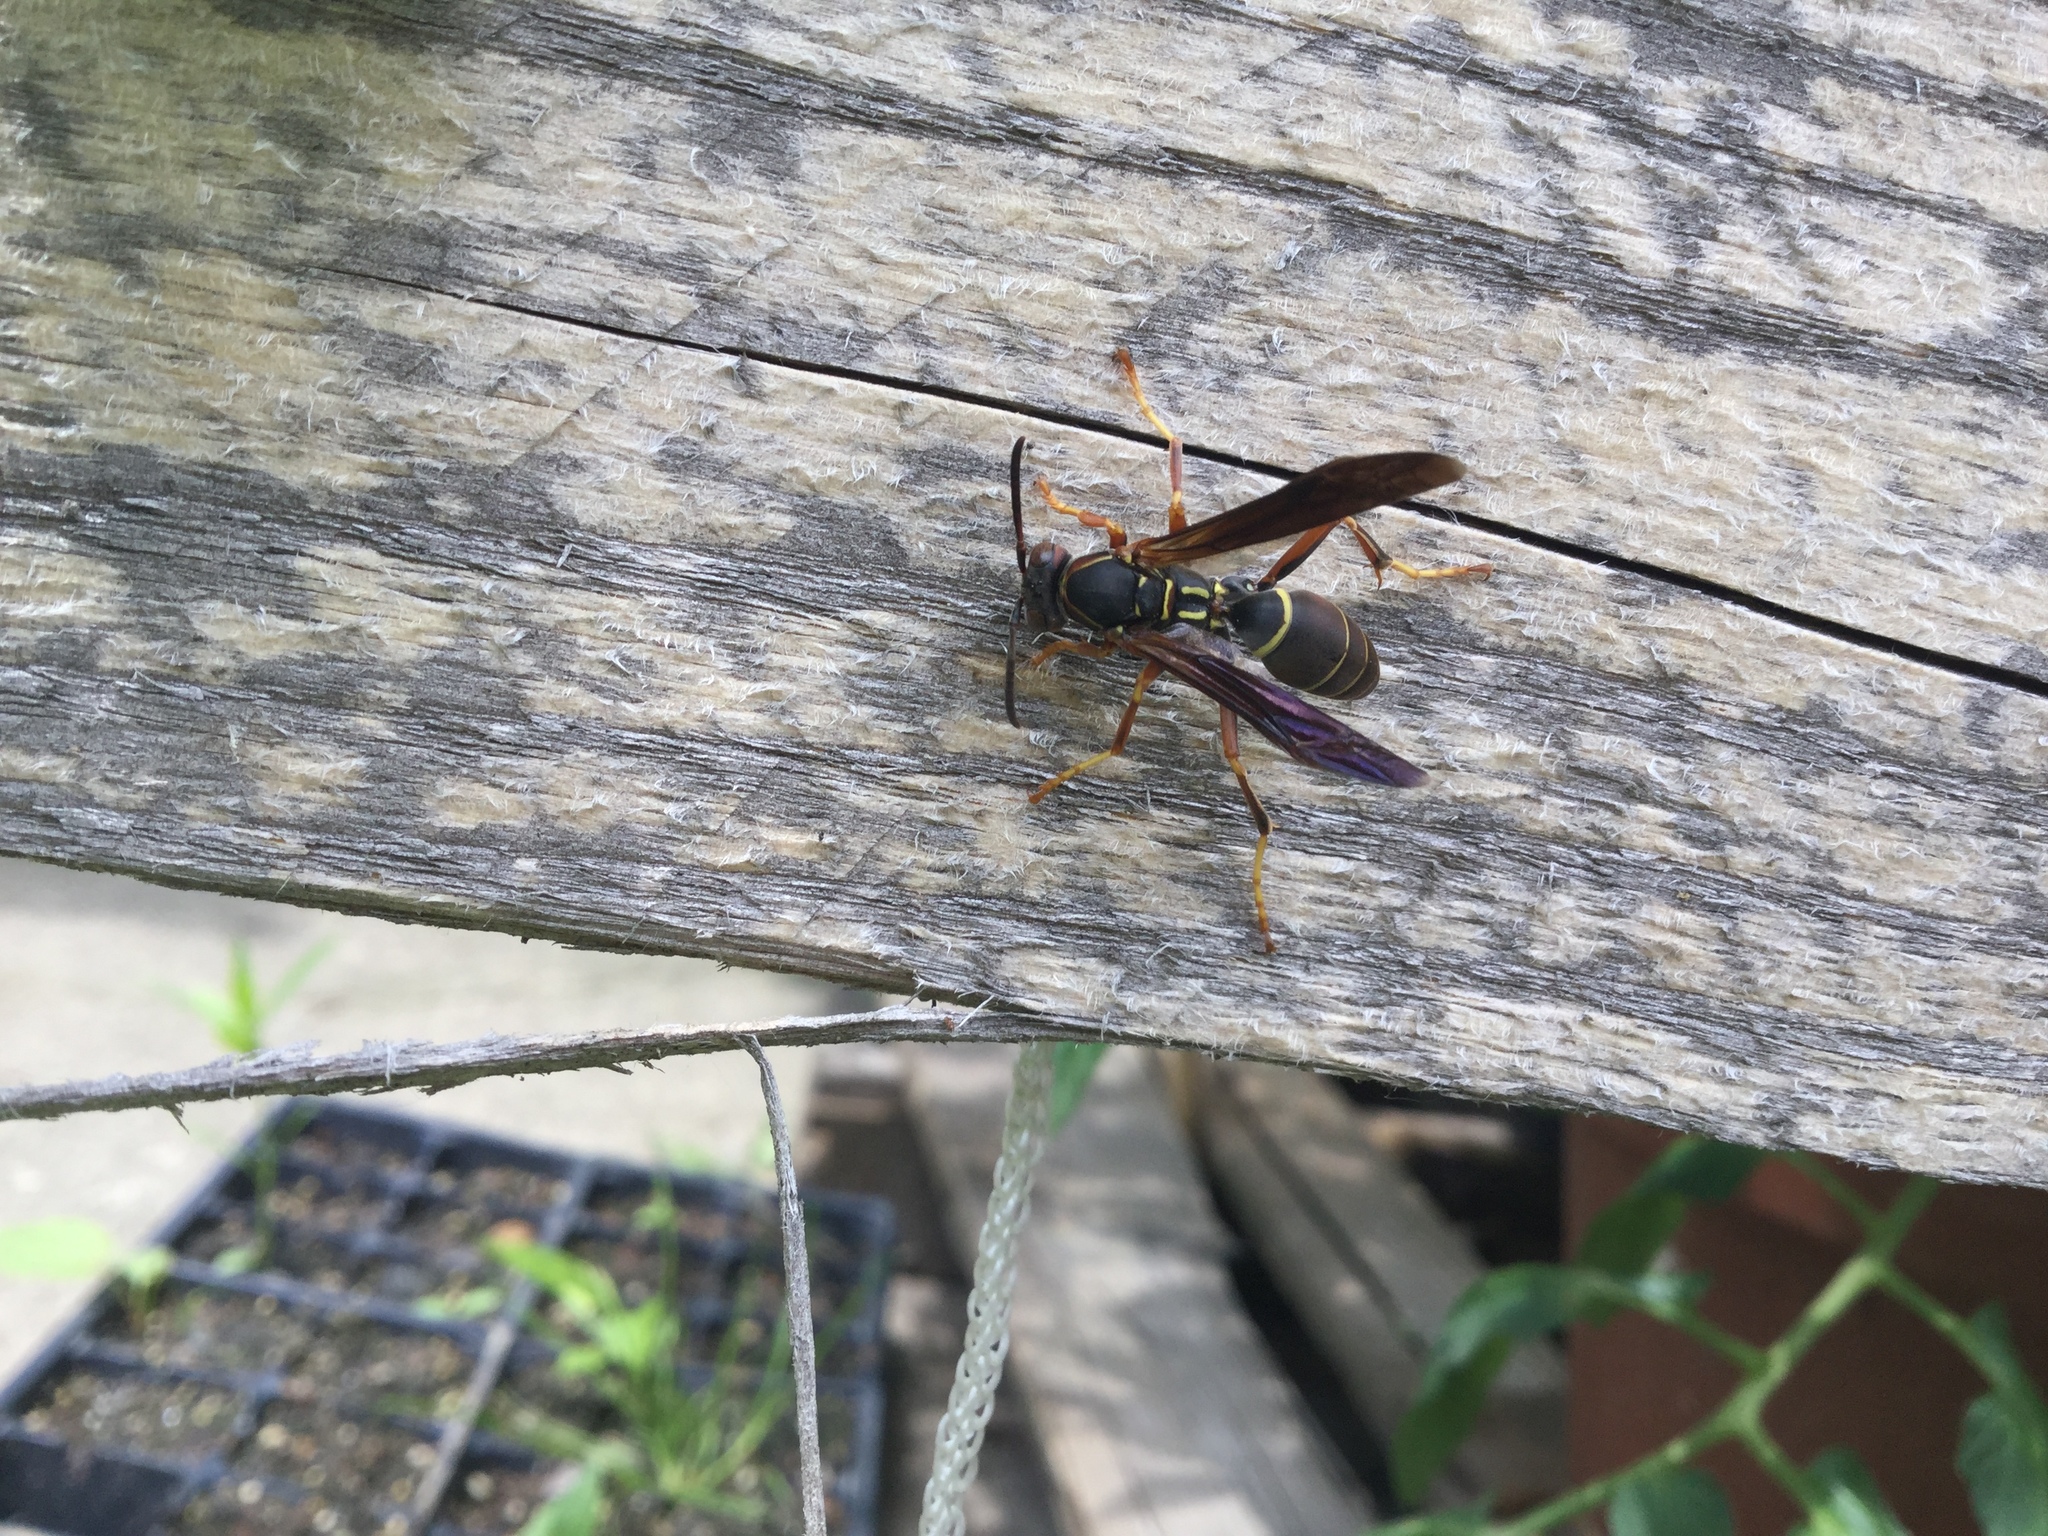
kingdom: Animalia
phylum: Arthropoda
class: Insecta
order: Hymenoptera
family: Eumenidae
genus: Polistes
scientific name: Polistes fuscatus
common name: Dark paper wasp
